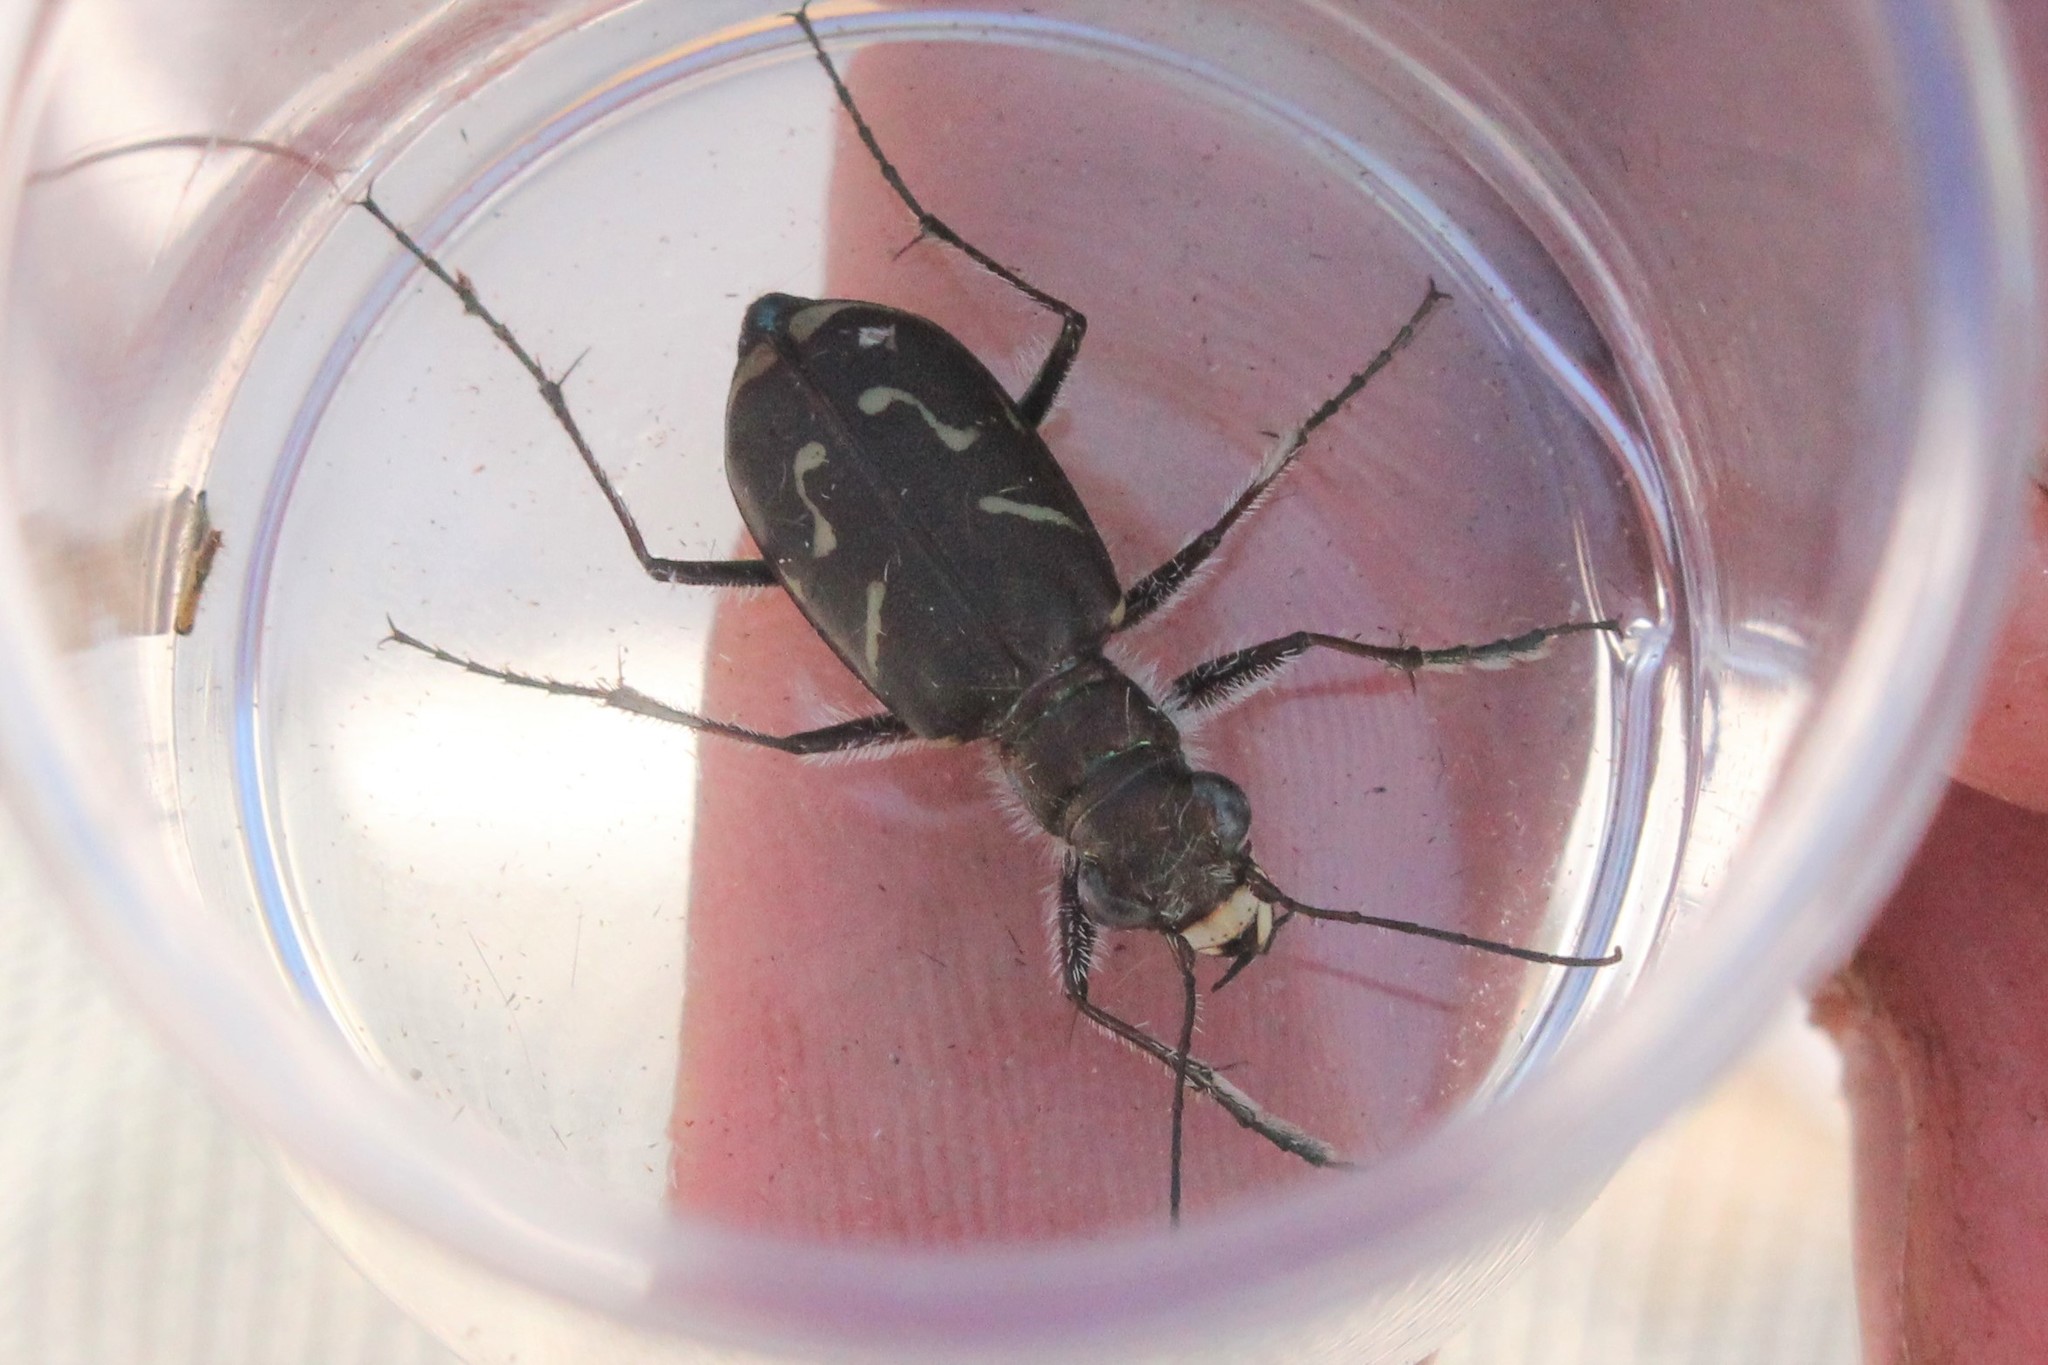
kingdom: Animalia
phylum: Arthropoda
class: Insecta
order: Coleoptera
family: Carabidae
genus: Cicindela
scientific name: Cicindela tranquebarica
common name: Oblique-lined tiger beetle
